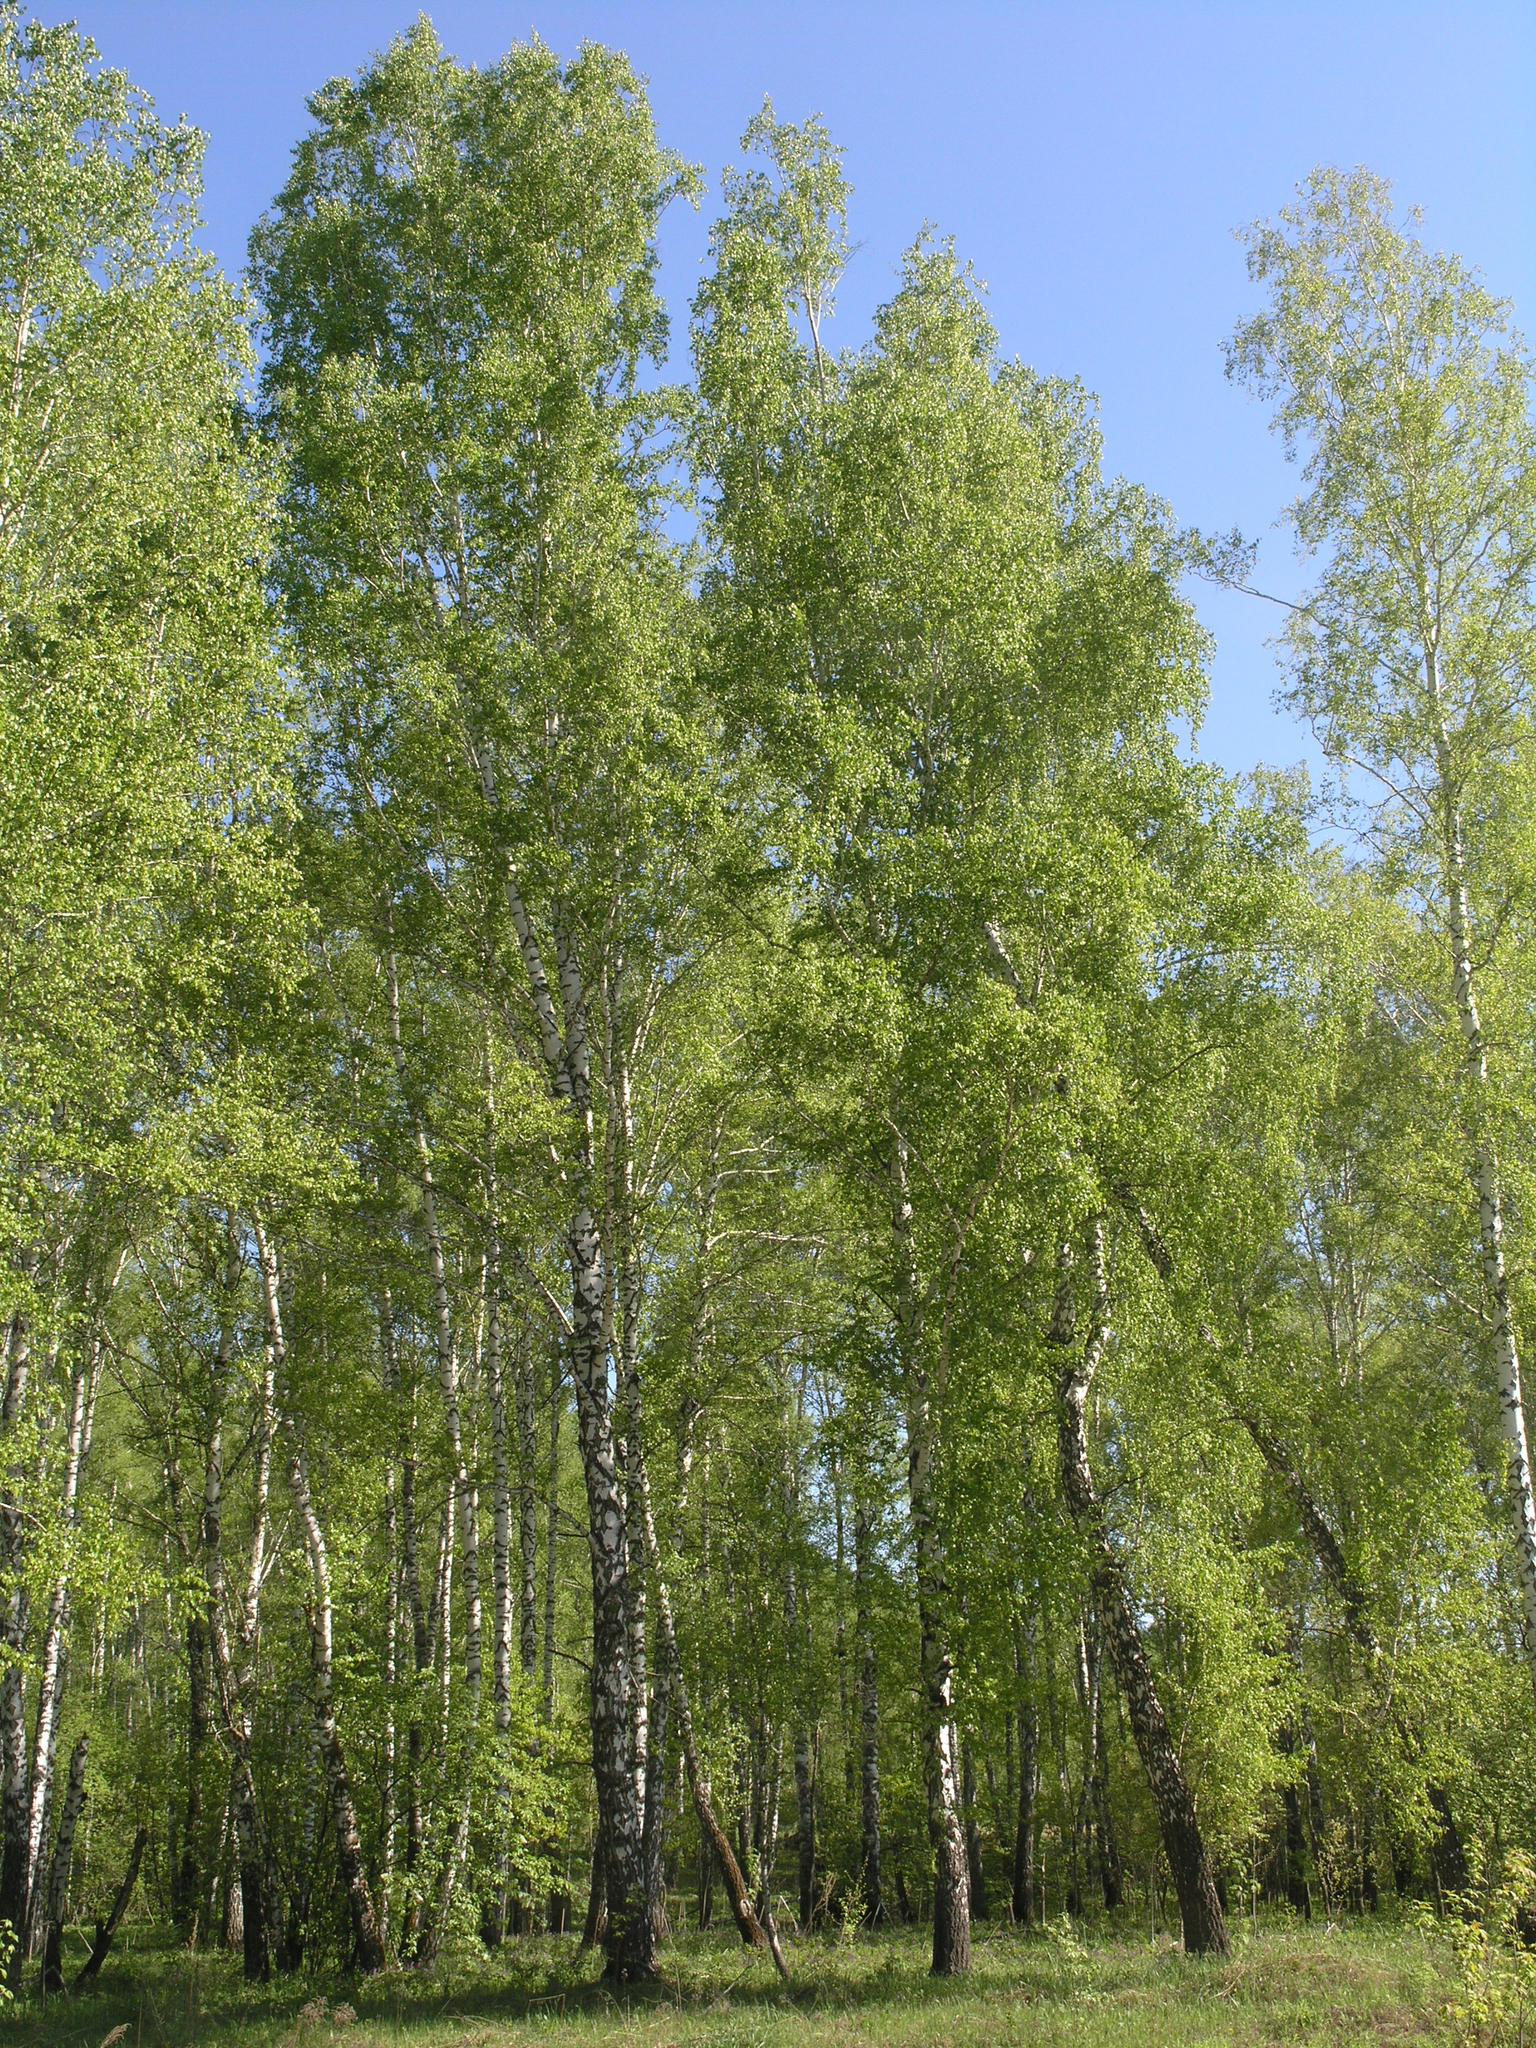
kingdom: Plantae
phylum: Tracheophyta
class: Magnoliopsida
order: Fagales
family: Betulaceae
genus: Betula
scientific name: Betula pendula
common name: Silver birch
